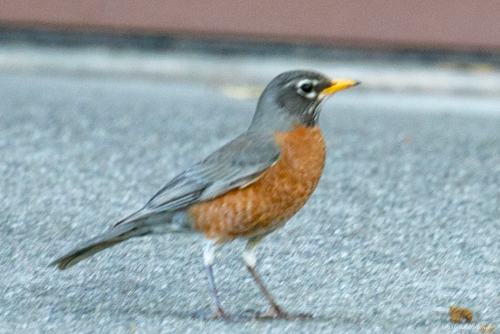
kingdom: Animalia
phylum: Chordata
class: Aves
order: Passeriformes
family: Turdidae
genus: Turdus
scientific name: Turdus migratorius
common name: American robin
